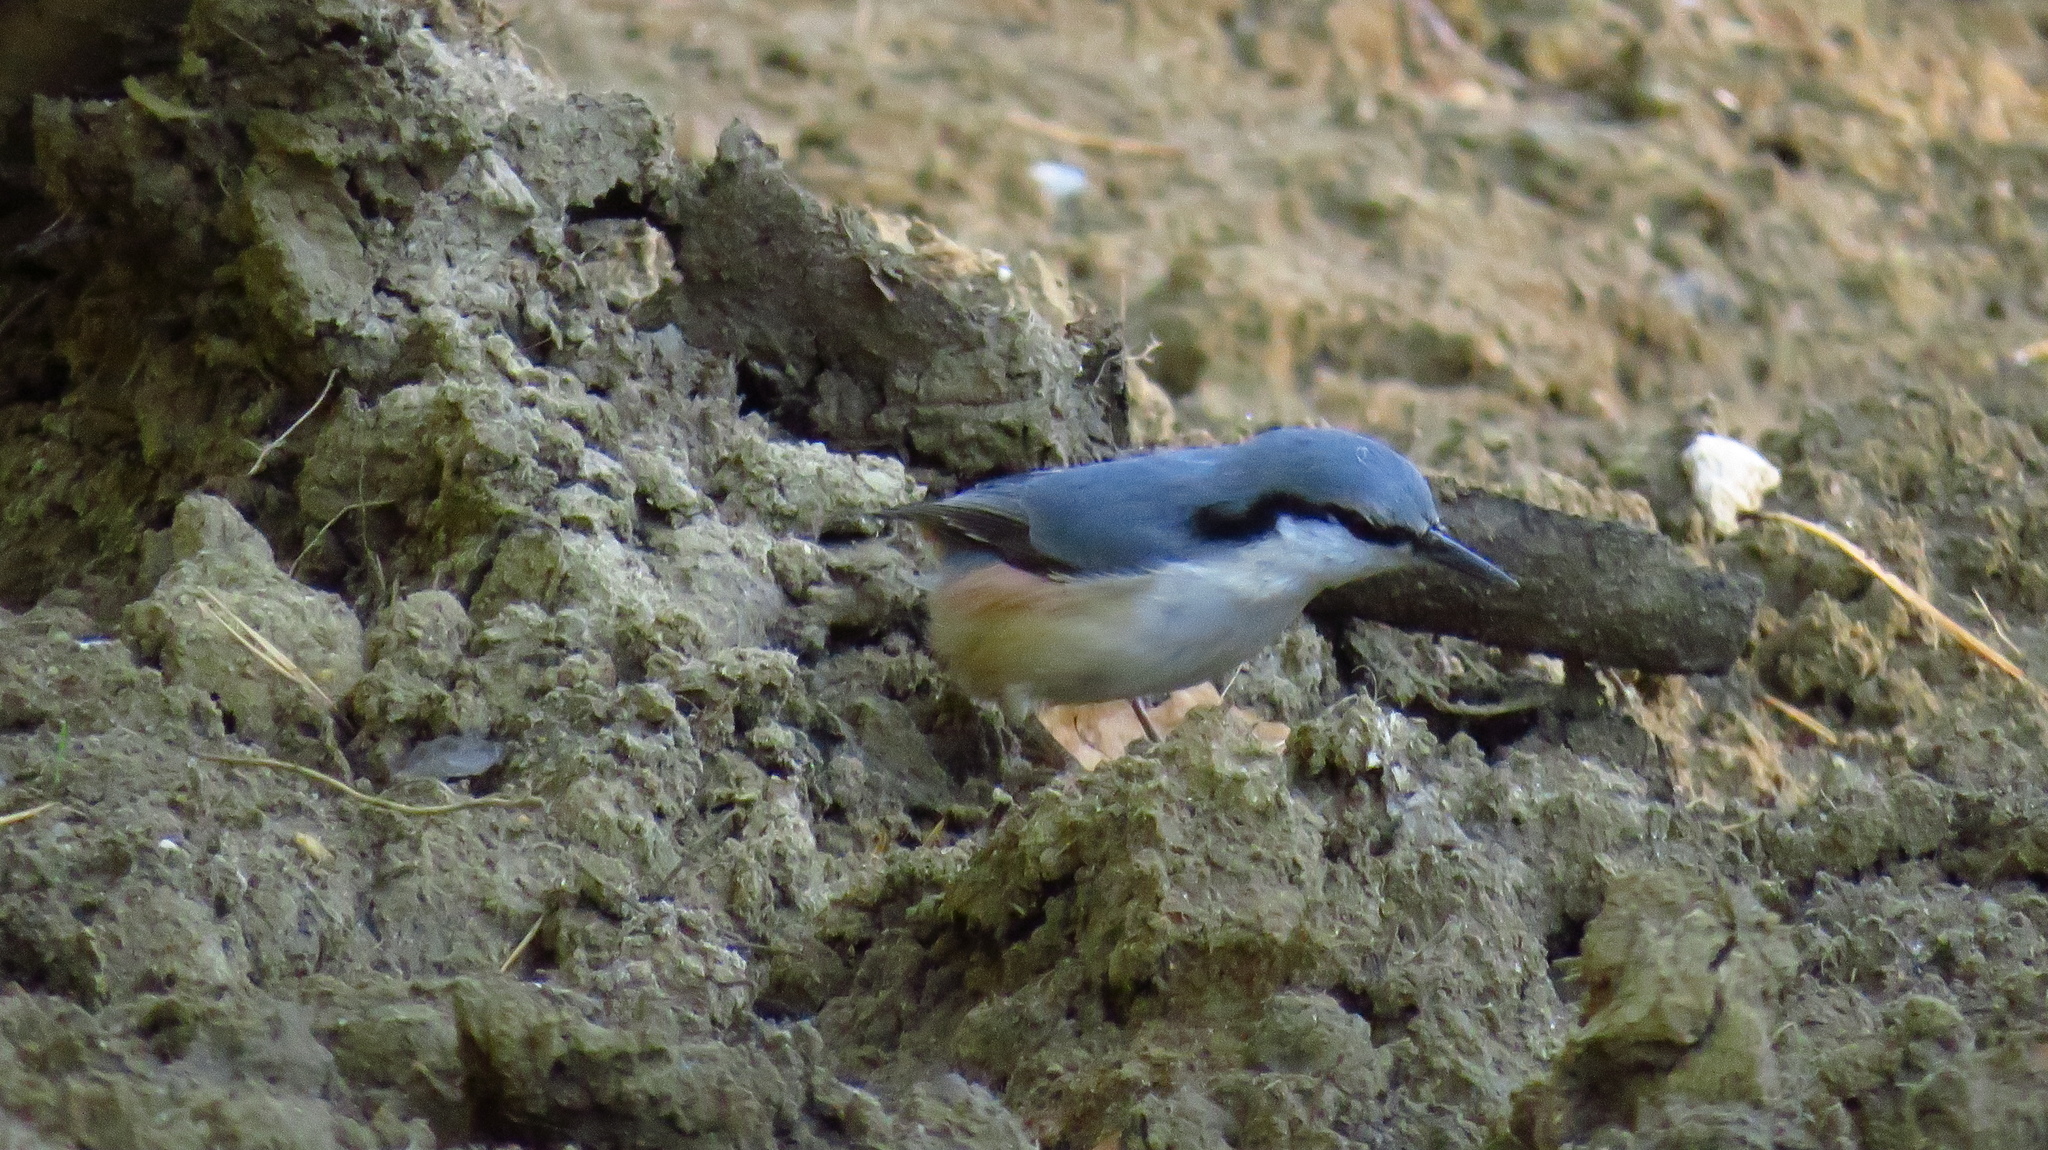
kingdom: Animalia
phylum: Chordata
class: Aves
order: Passeriformes
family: Sittidae
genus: Sitta
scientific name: Sitta europaea
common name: Eurasian nuthatch
